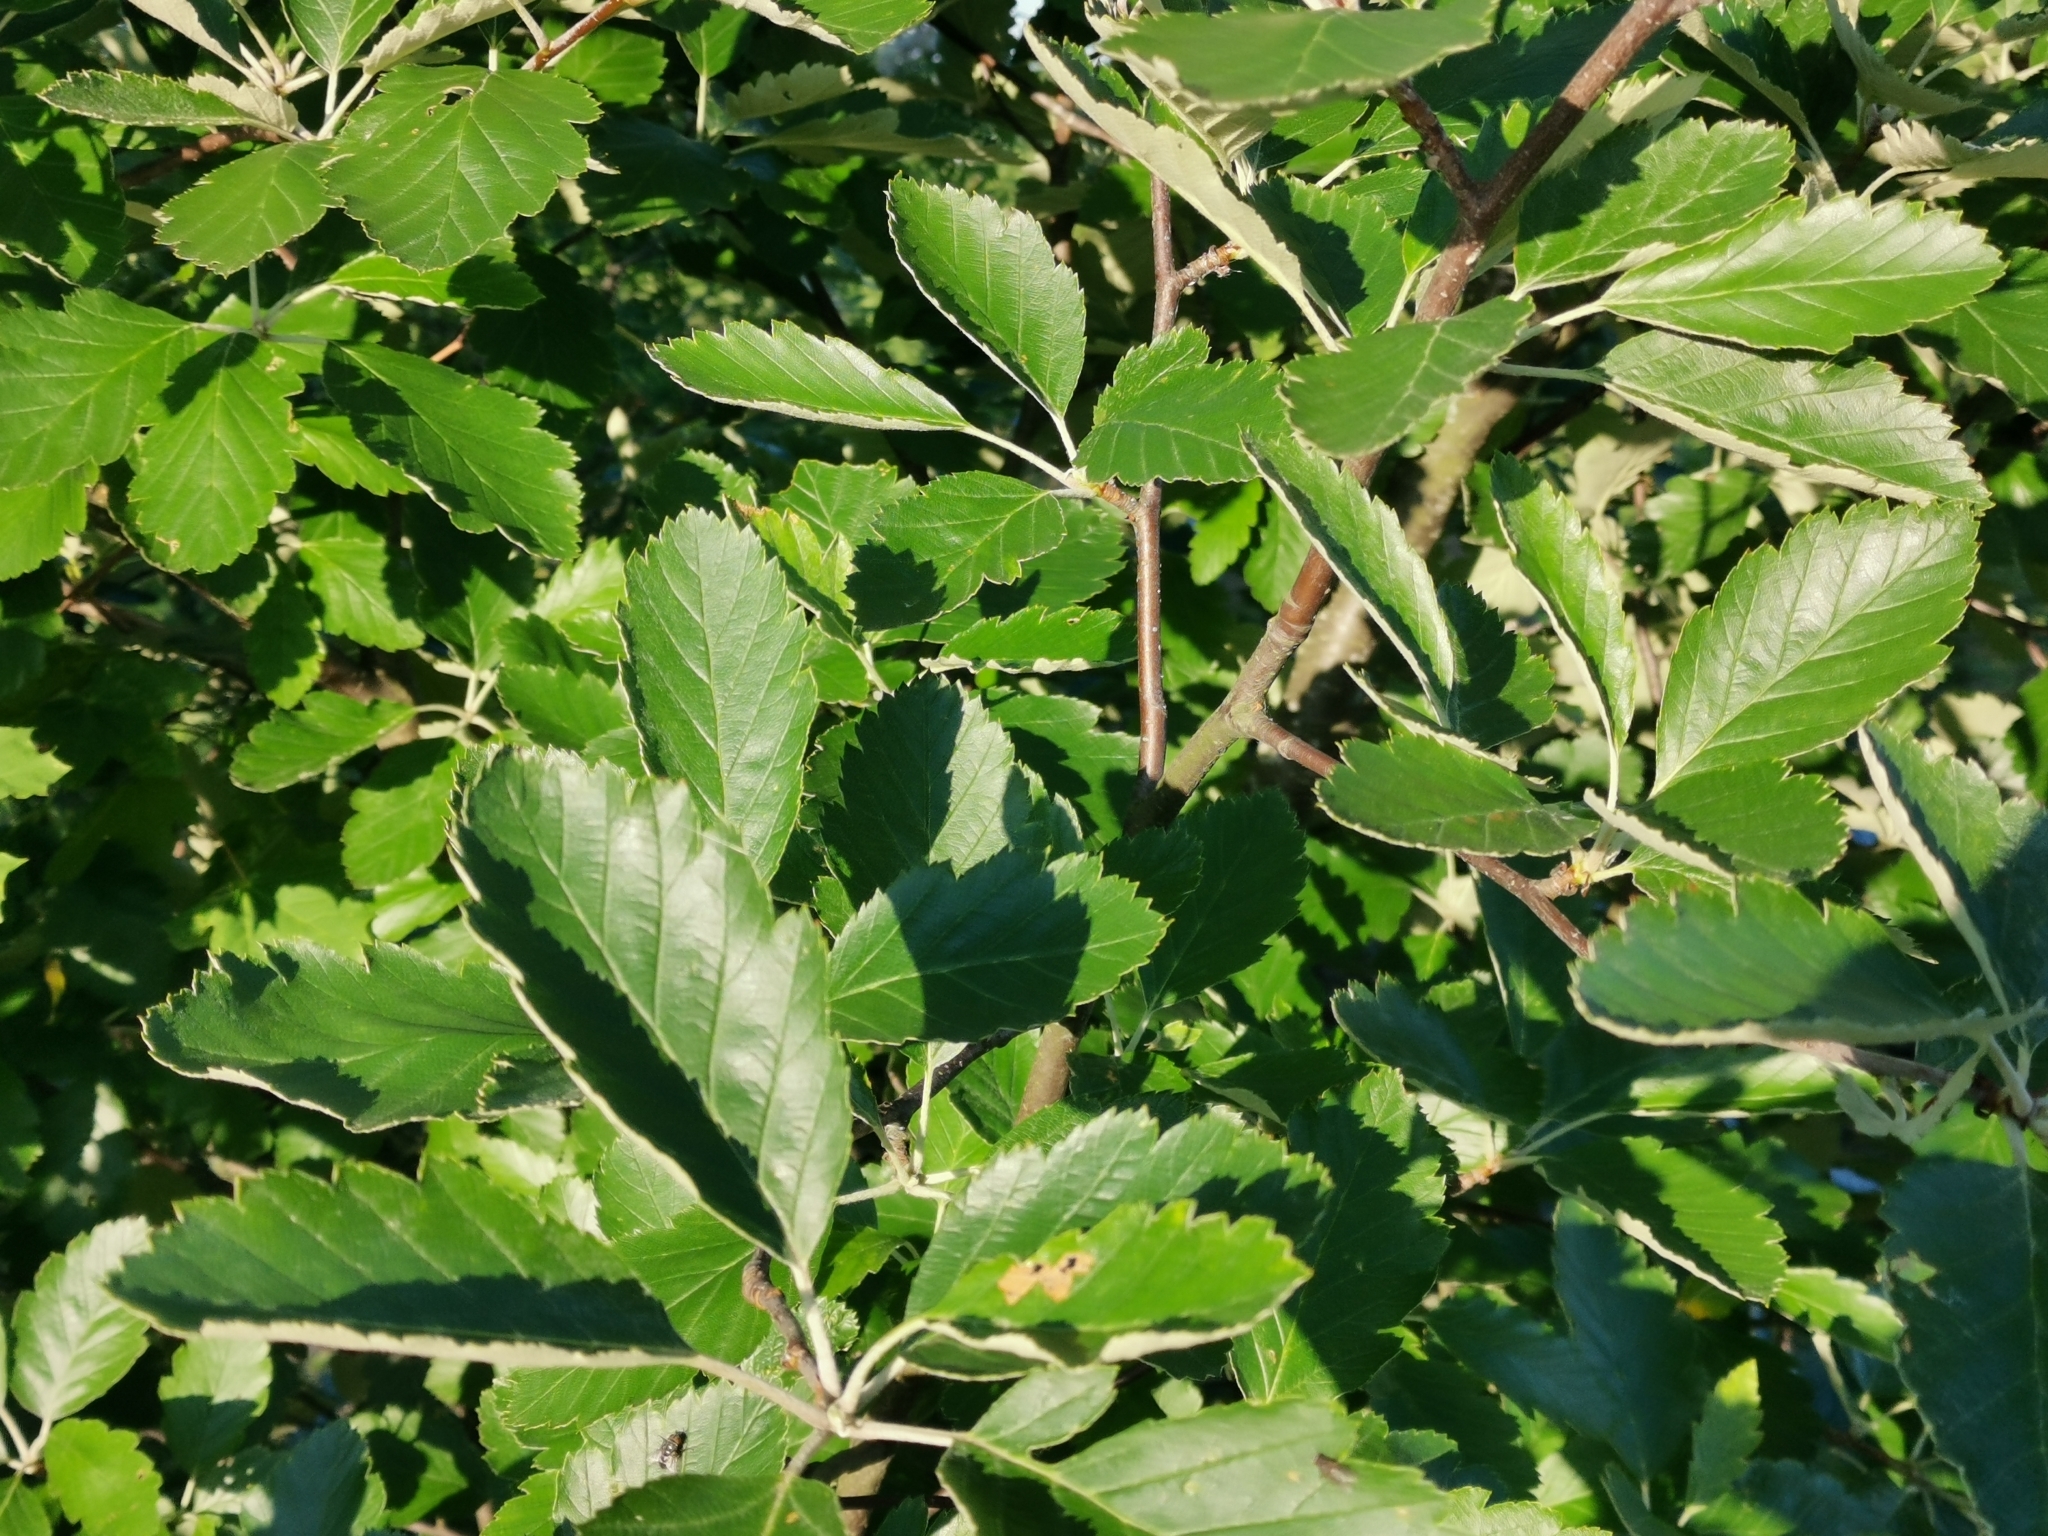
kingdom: Plantae
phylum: Tracheophyta
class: Magnoliopsida
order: Rosales
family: Rosaceae
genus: Scandosorbus
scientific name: Scandosorbus intermedia
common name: Swedish whitebeam
